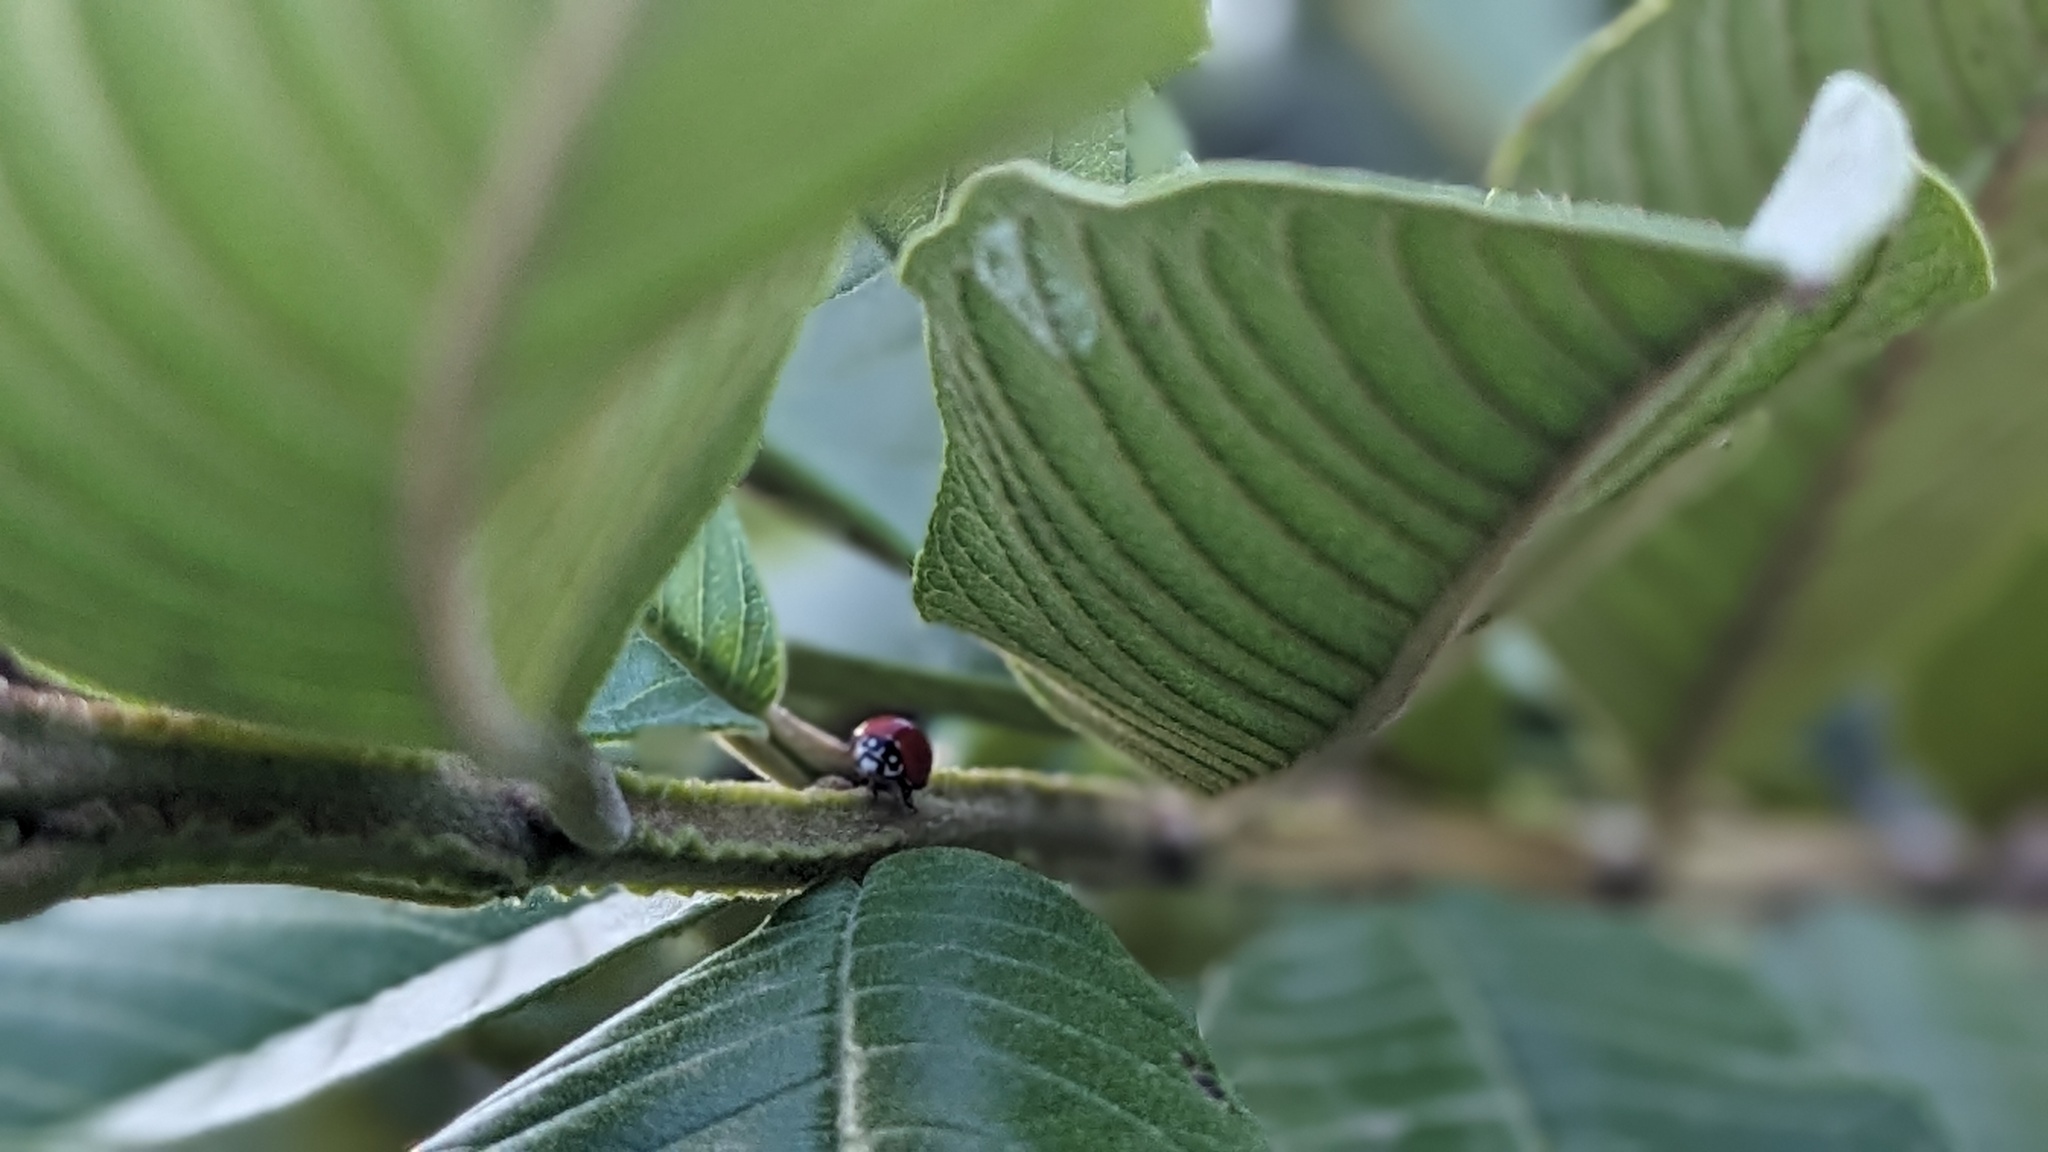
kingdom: Animalia
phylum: Arthropoda
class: Insecta
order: Coleoptera
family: Coccinellidae
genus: Cycloneda
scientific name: Cycloneda sanguinea
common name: Ladybird beetle
